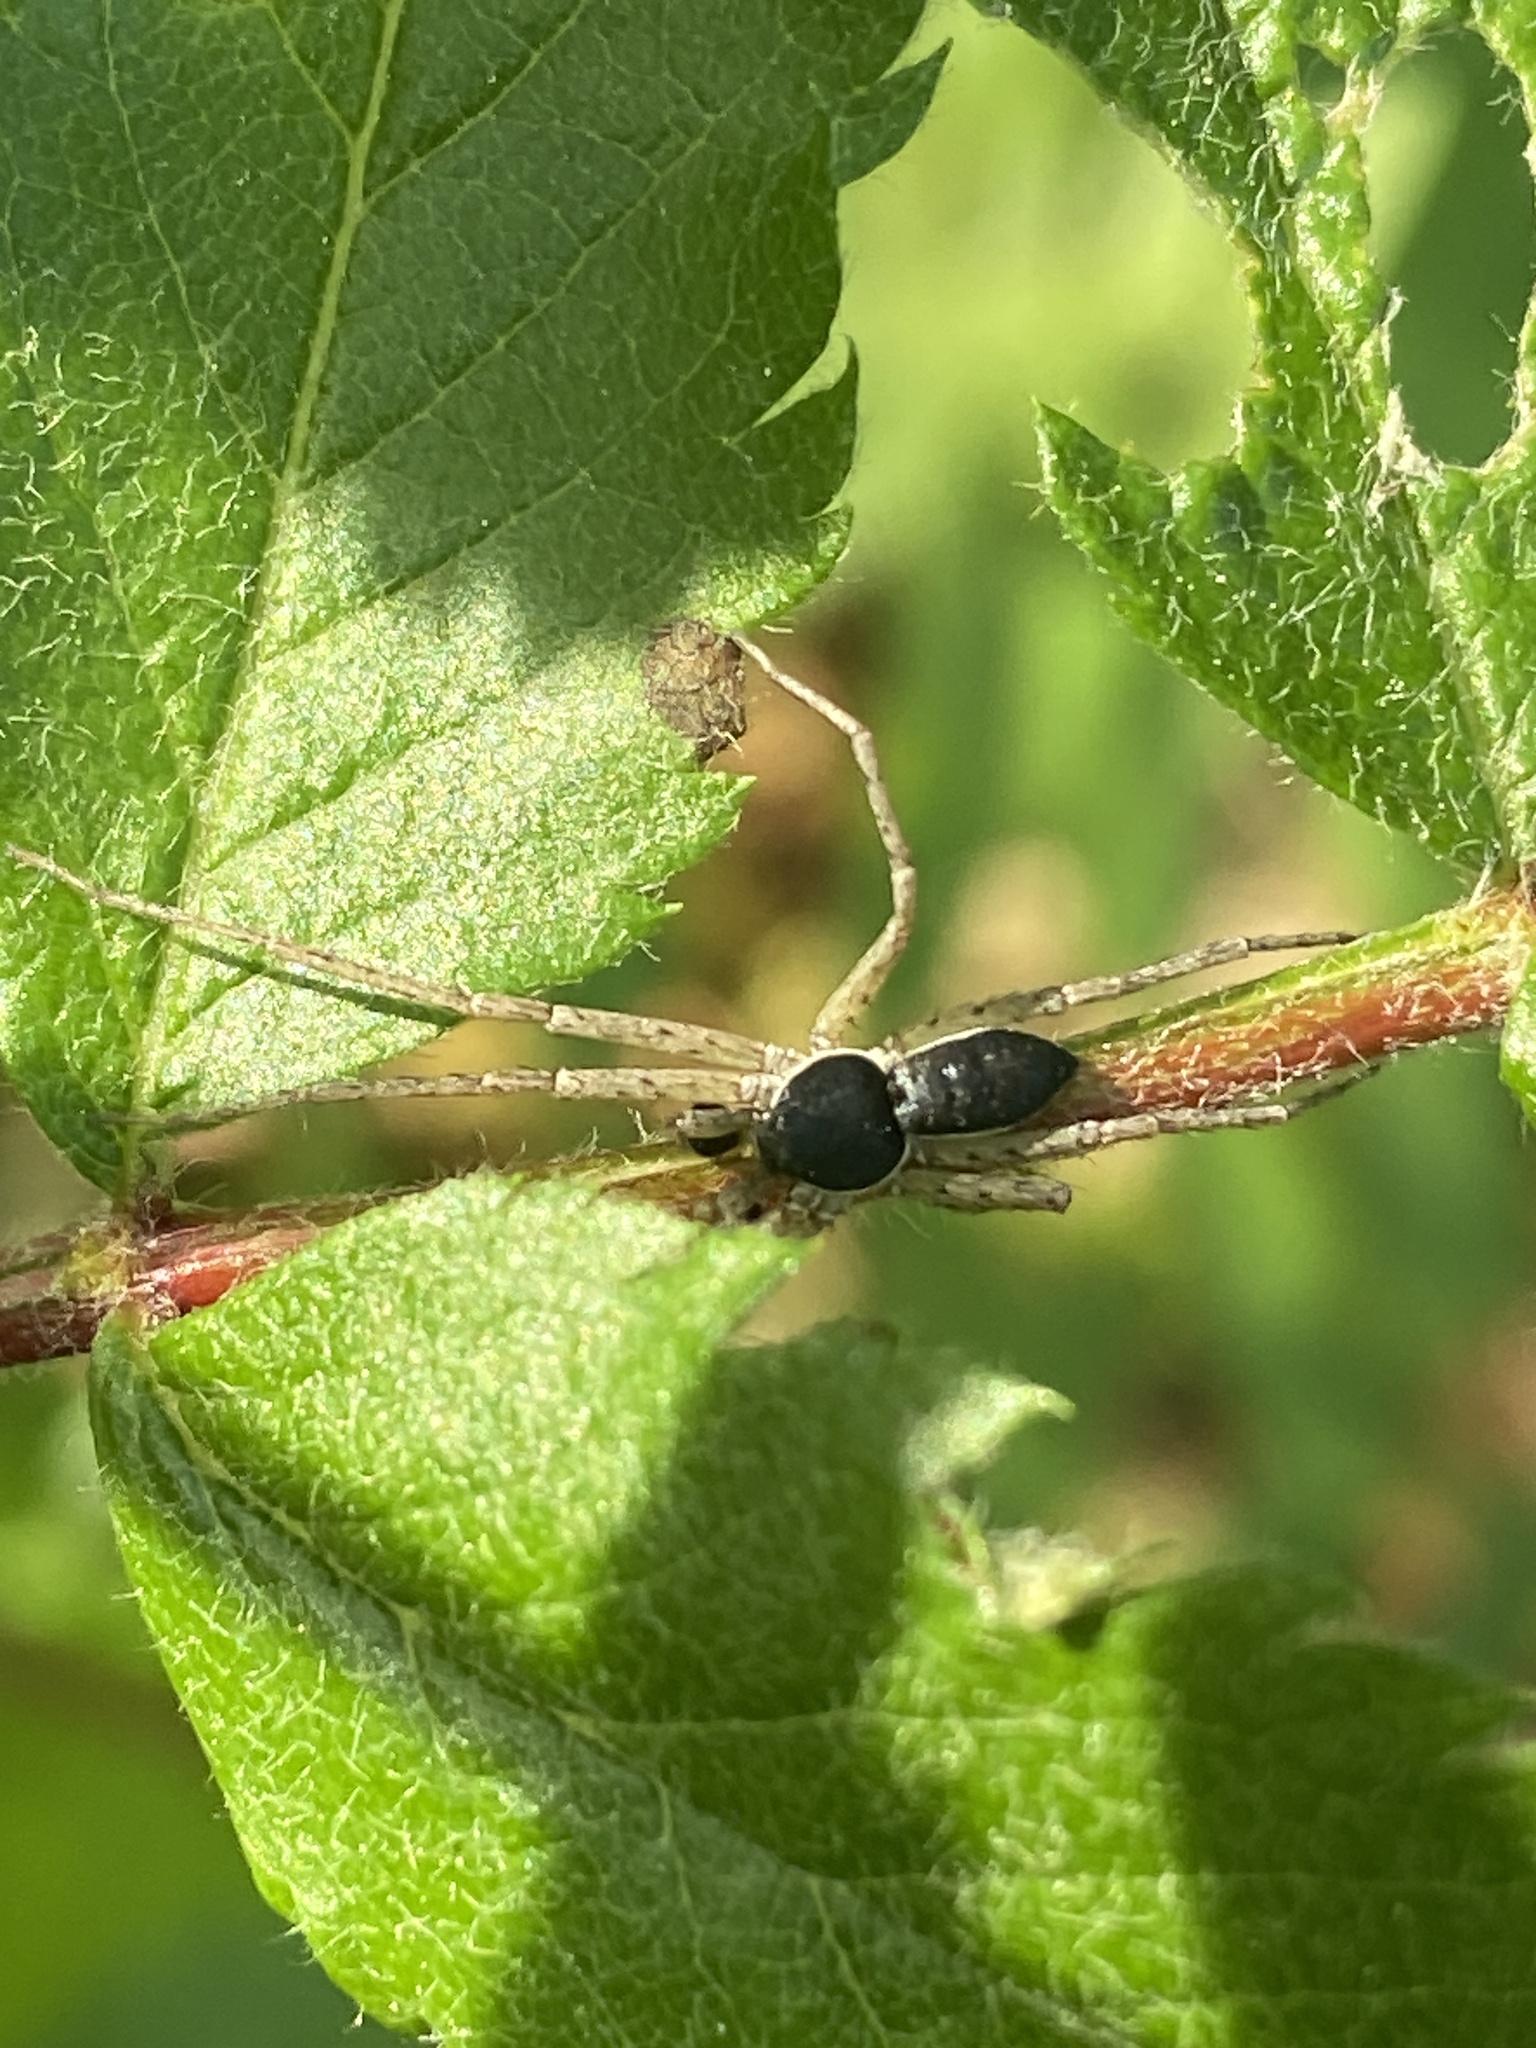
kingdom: Animalia
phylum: Arthropoda
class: Arachnida
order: Araneae
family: Philodromidae
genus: Philodromus
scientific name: Philodromus dispar
